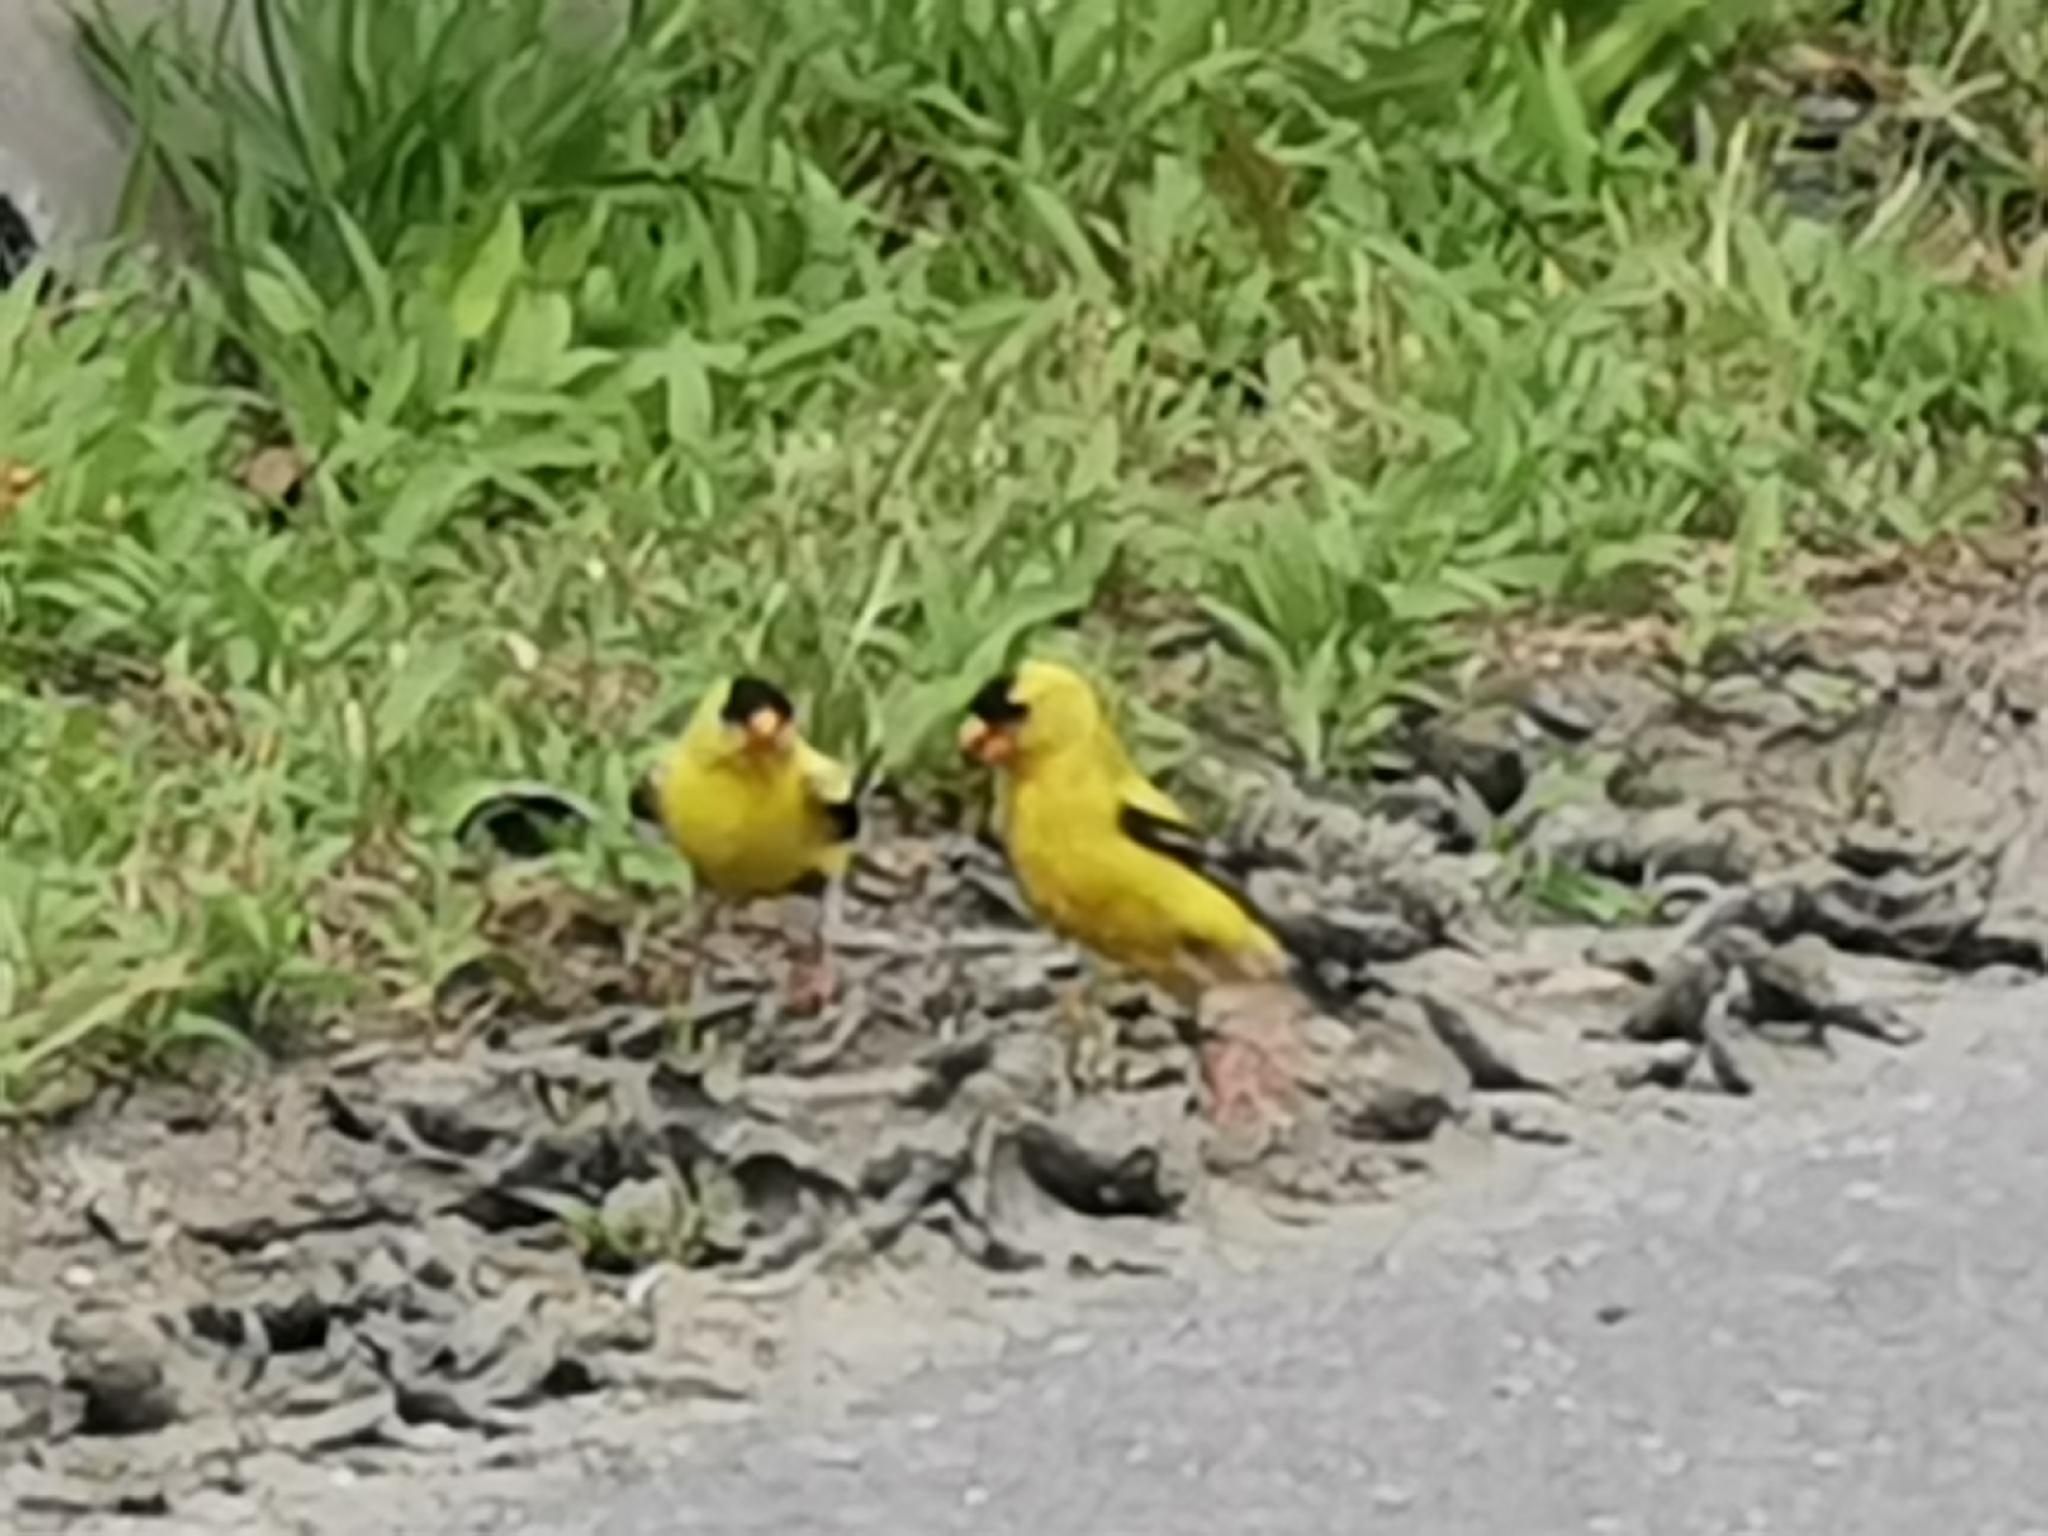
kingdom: Animalia
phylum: Chordata
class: Aves
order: Passeriformes
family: Fringillidae
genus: Spinus
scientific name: Spinus tristis
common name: American goldfinch
